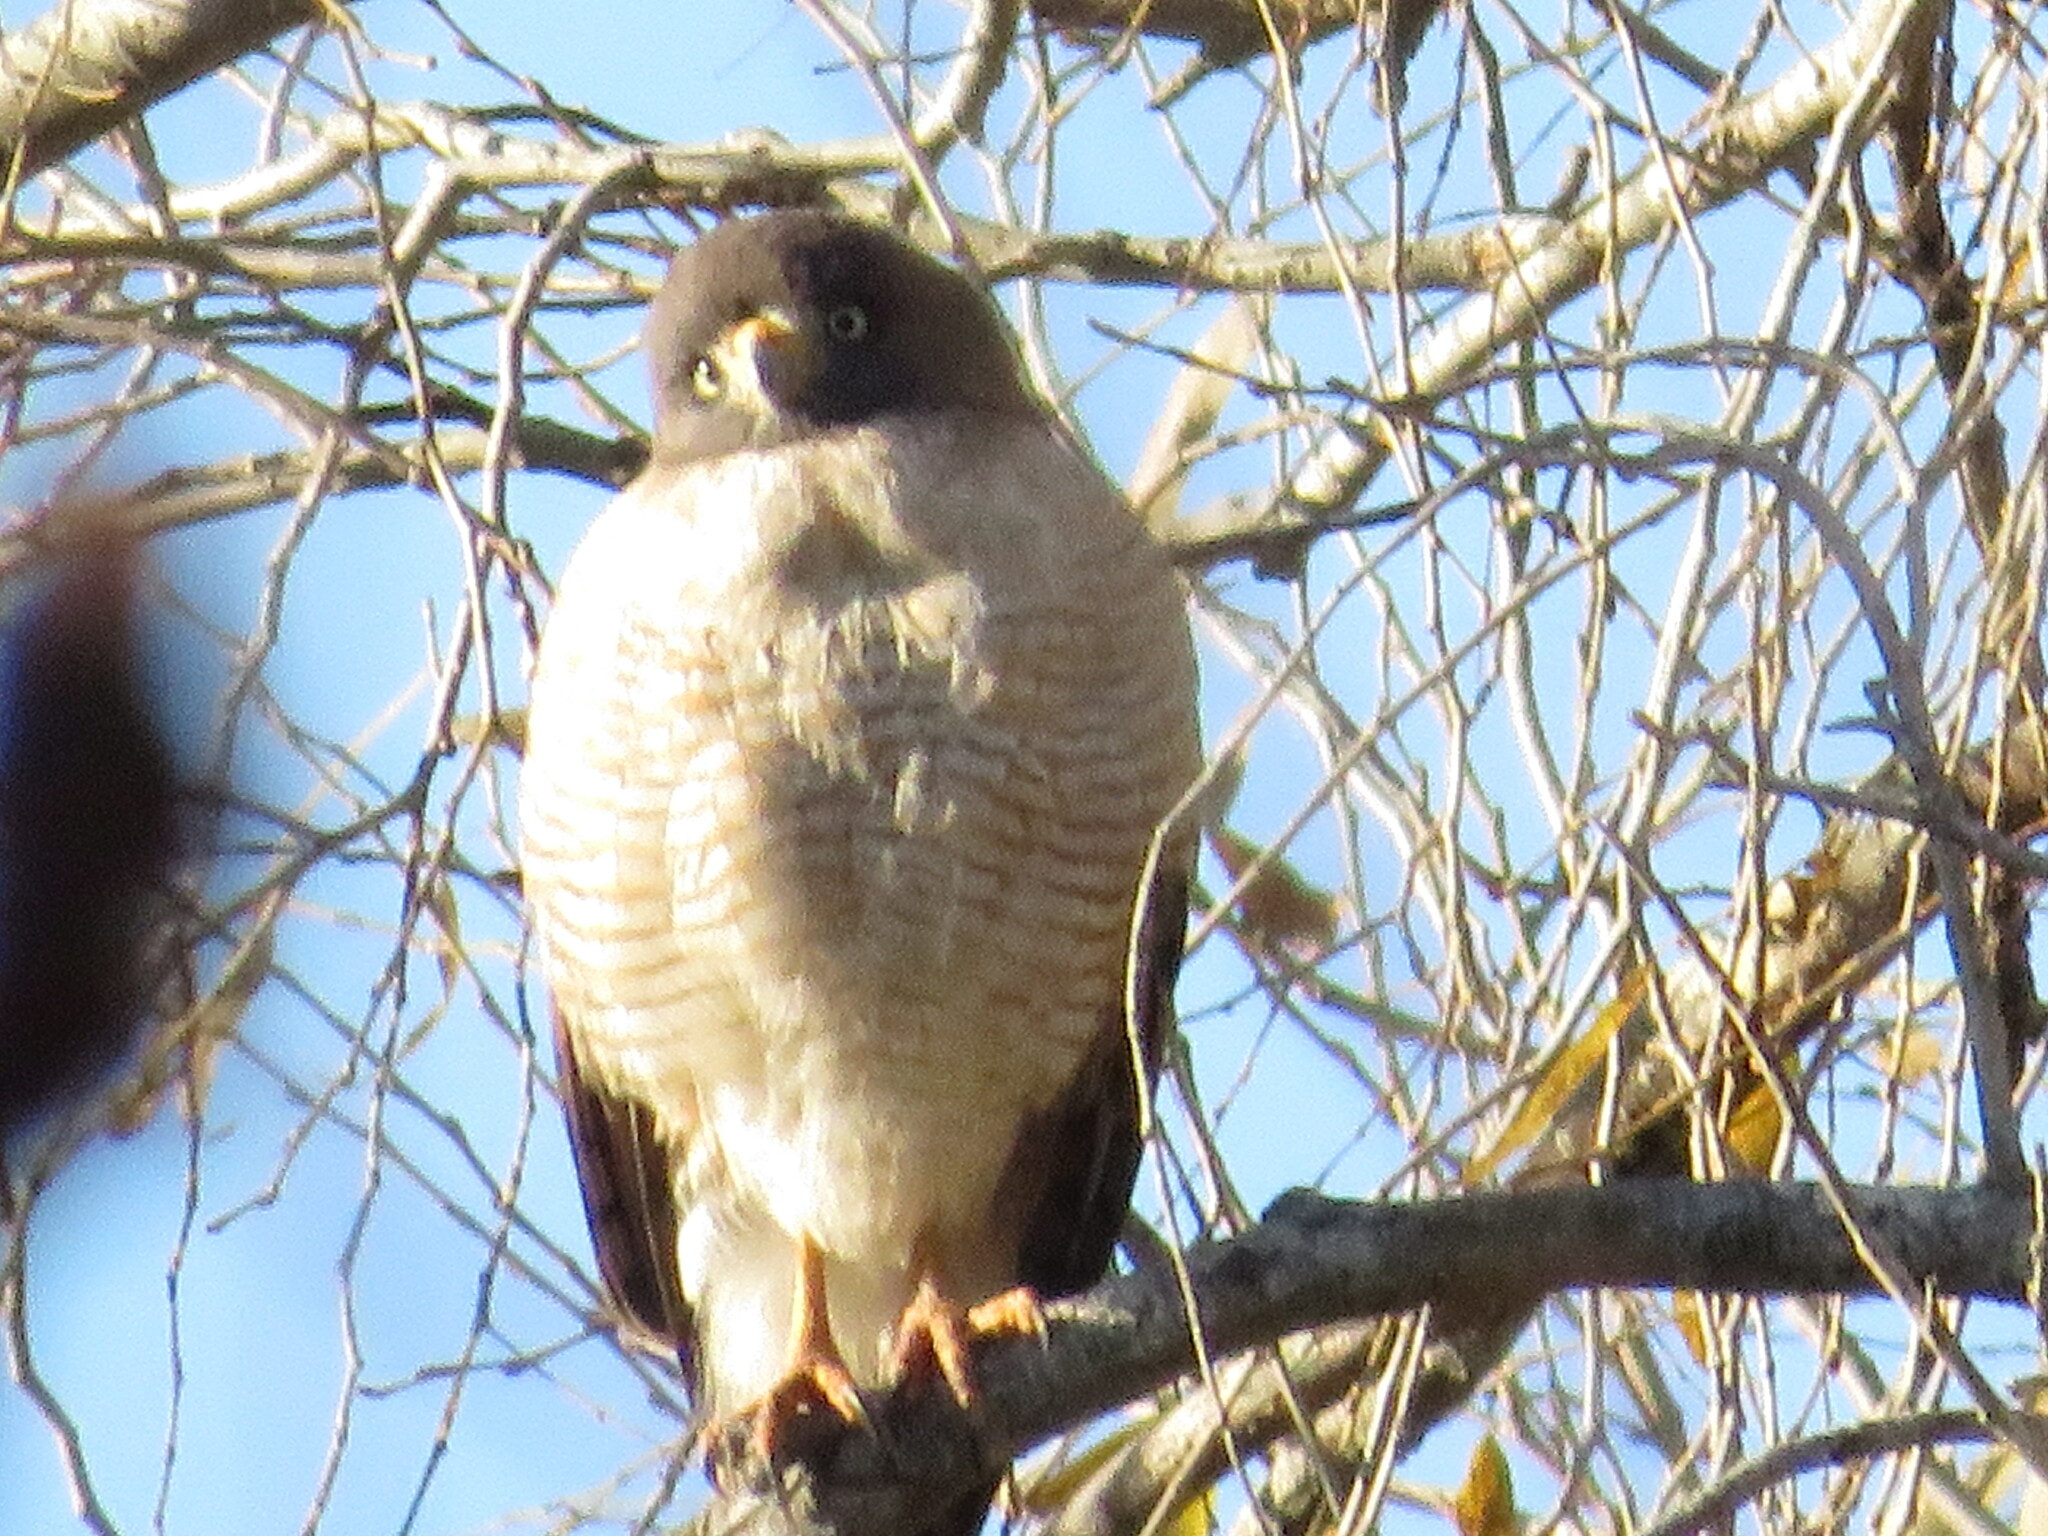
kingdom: Animalia
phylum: Chordata
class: Aves
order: Accipitriformes
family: Accipitridae
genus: Rupornis
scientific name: Rupornis magnirostris
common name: Roadside hawk
